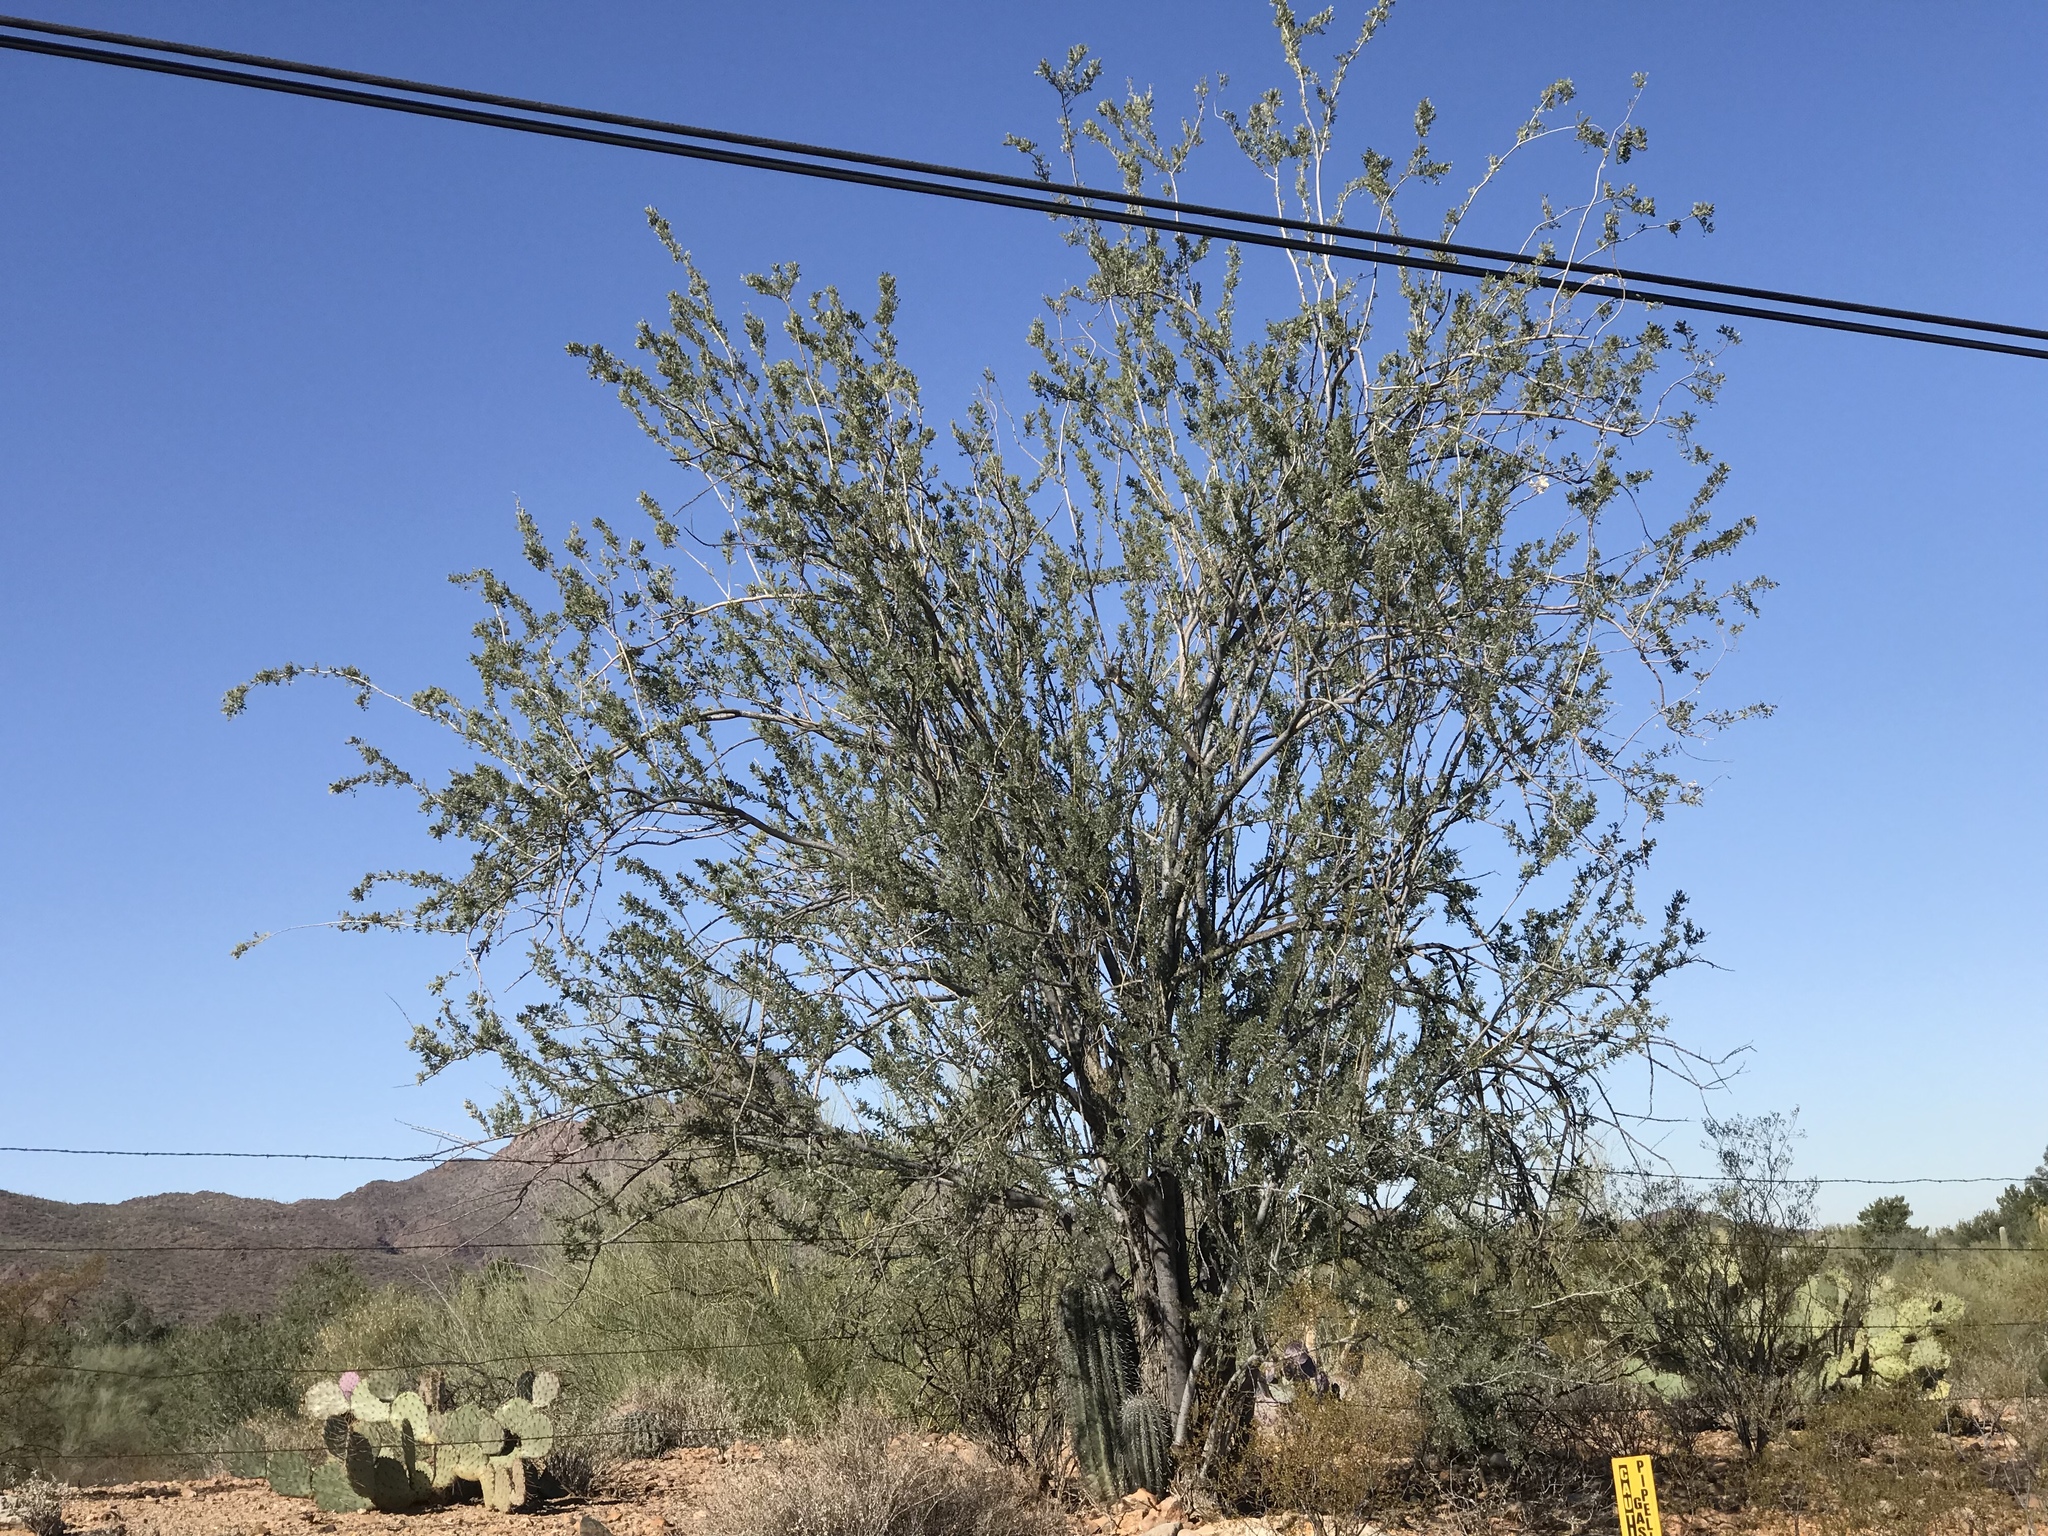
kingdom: Plantae
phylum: Tracheophyta
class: Magnoliopsida
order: Fabales
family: Fabaceae
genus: Olneya
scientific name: Olneya tesota
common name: Desert ironwood
